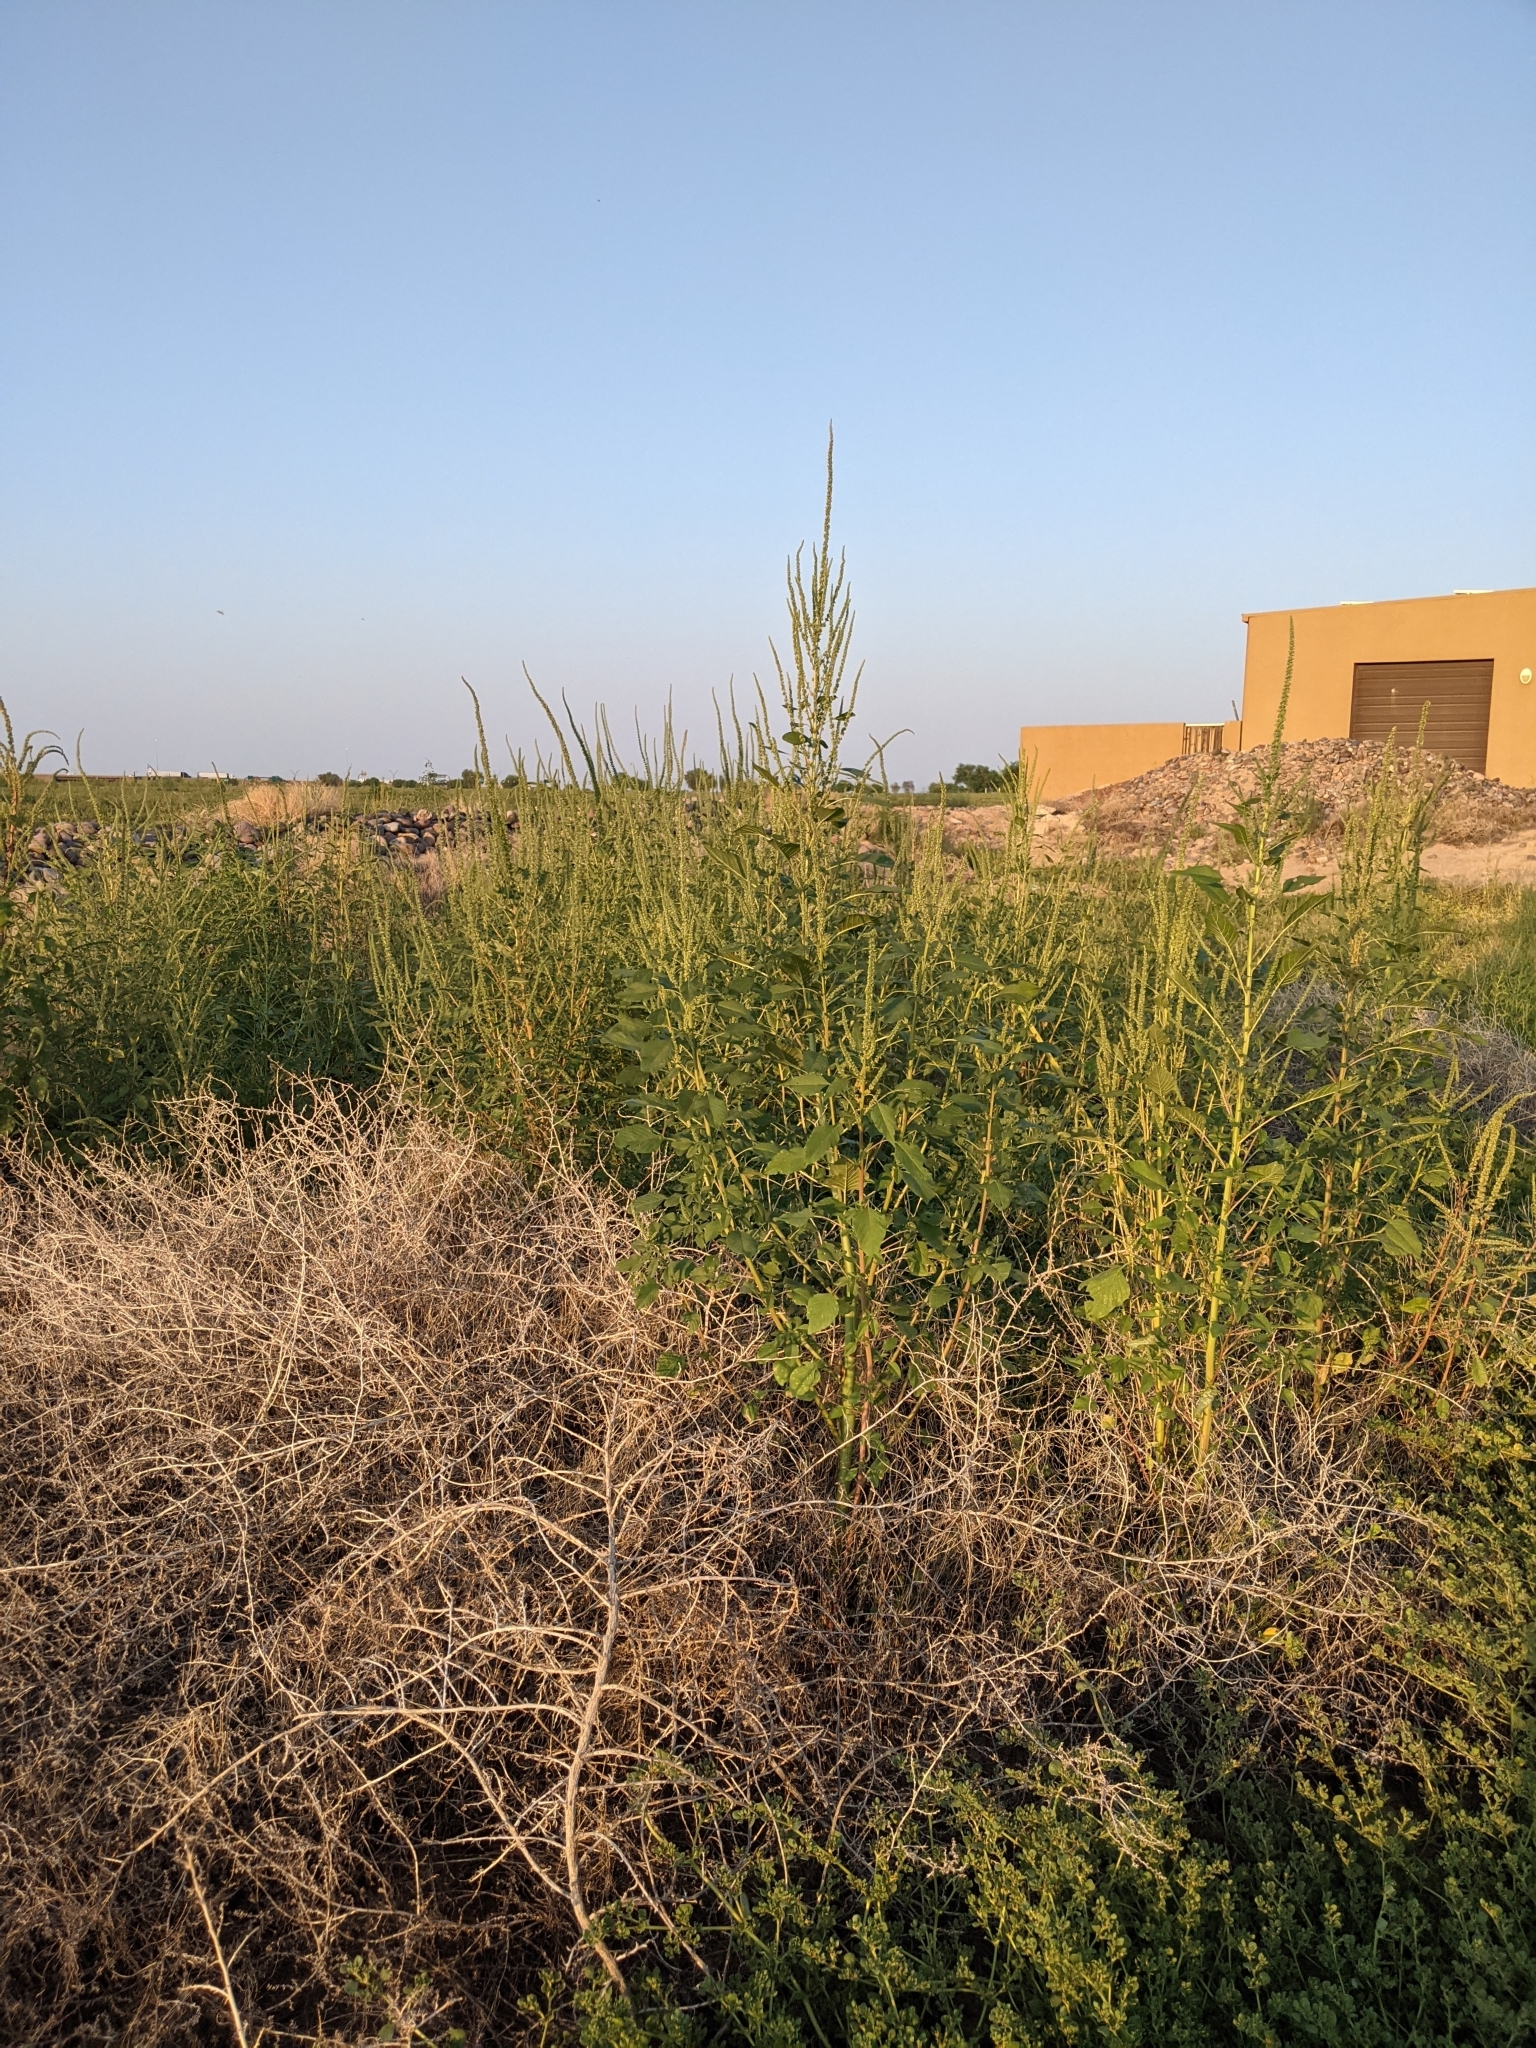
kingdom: Plantae
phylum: Tracheophyta
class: Magnoliopsida
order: Caryophyllales
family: Amaranthaceae
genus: Amaranthus
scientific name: Amaranthus palmeri
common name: Dioecious amaranth
